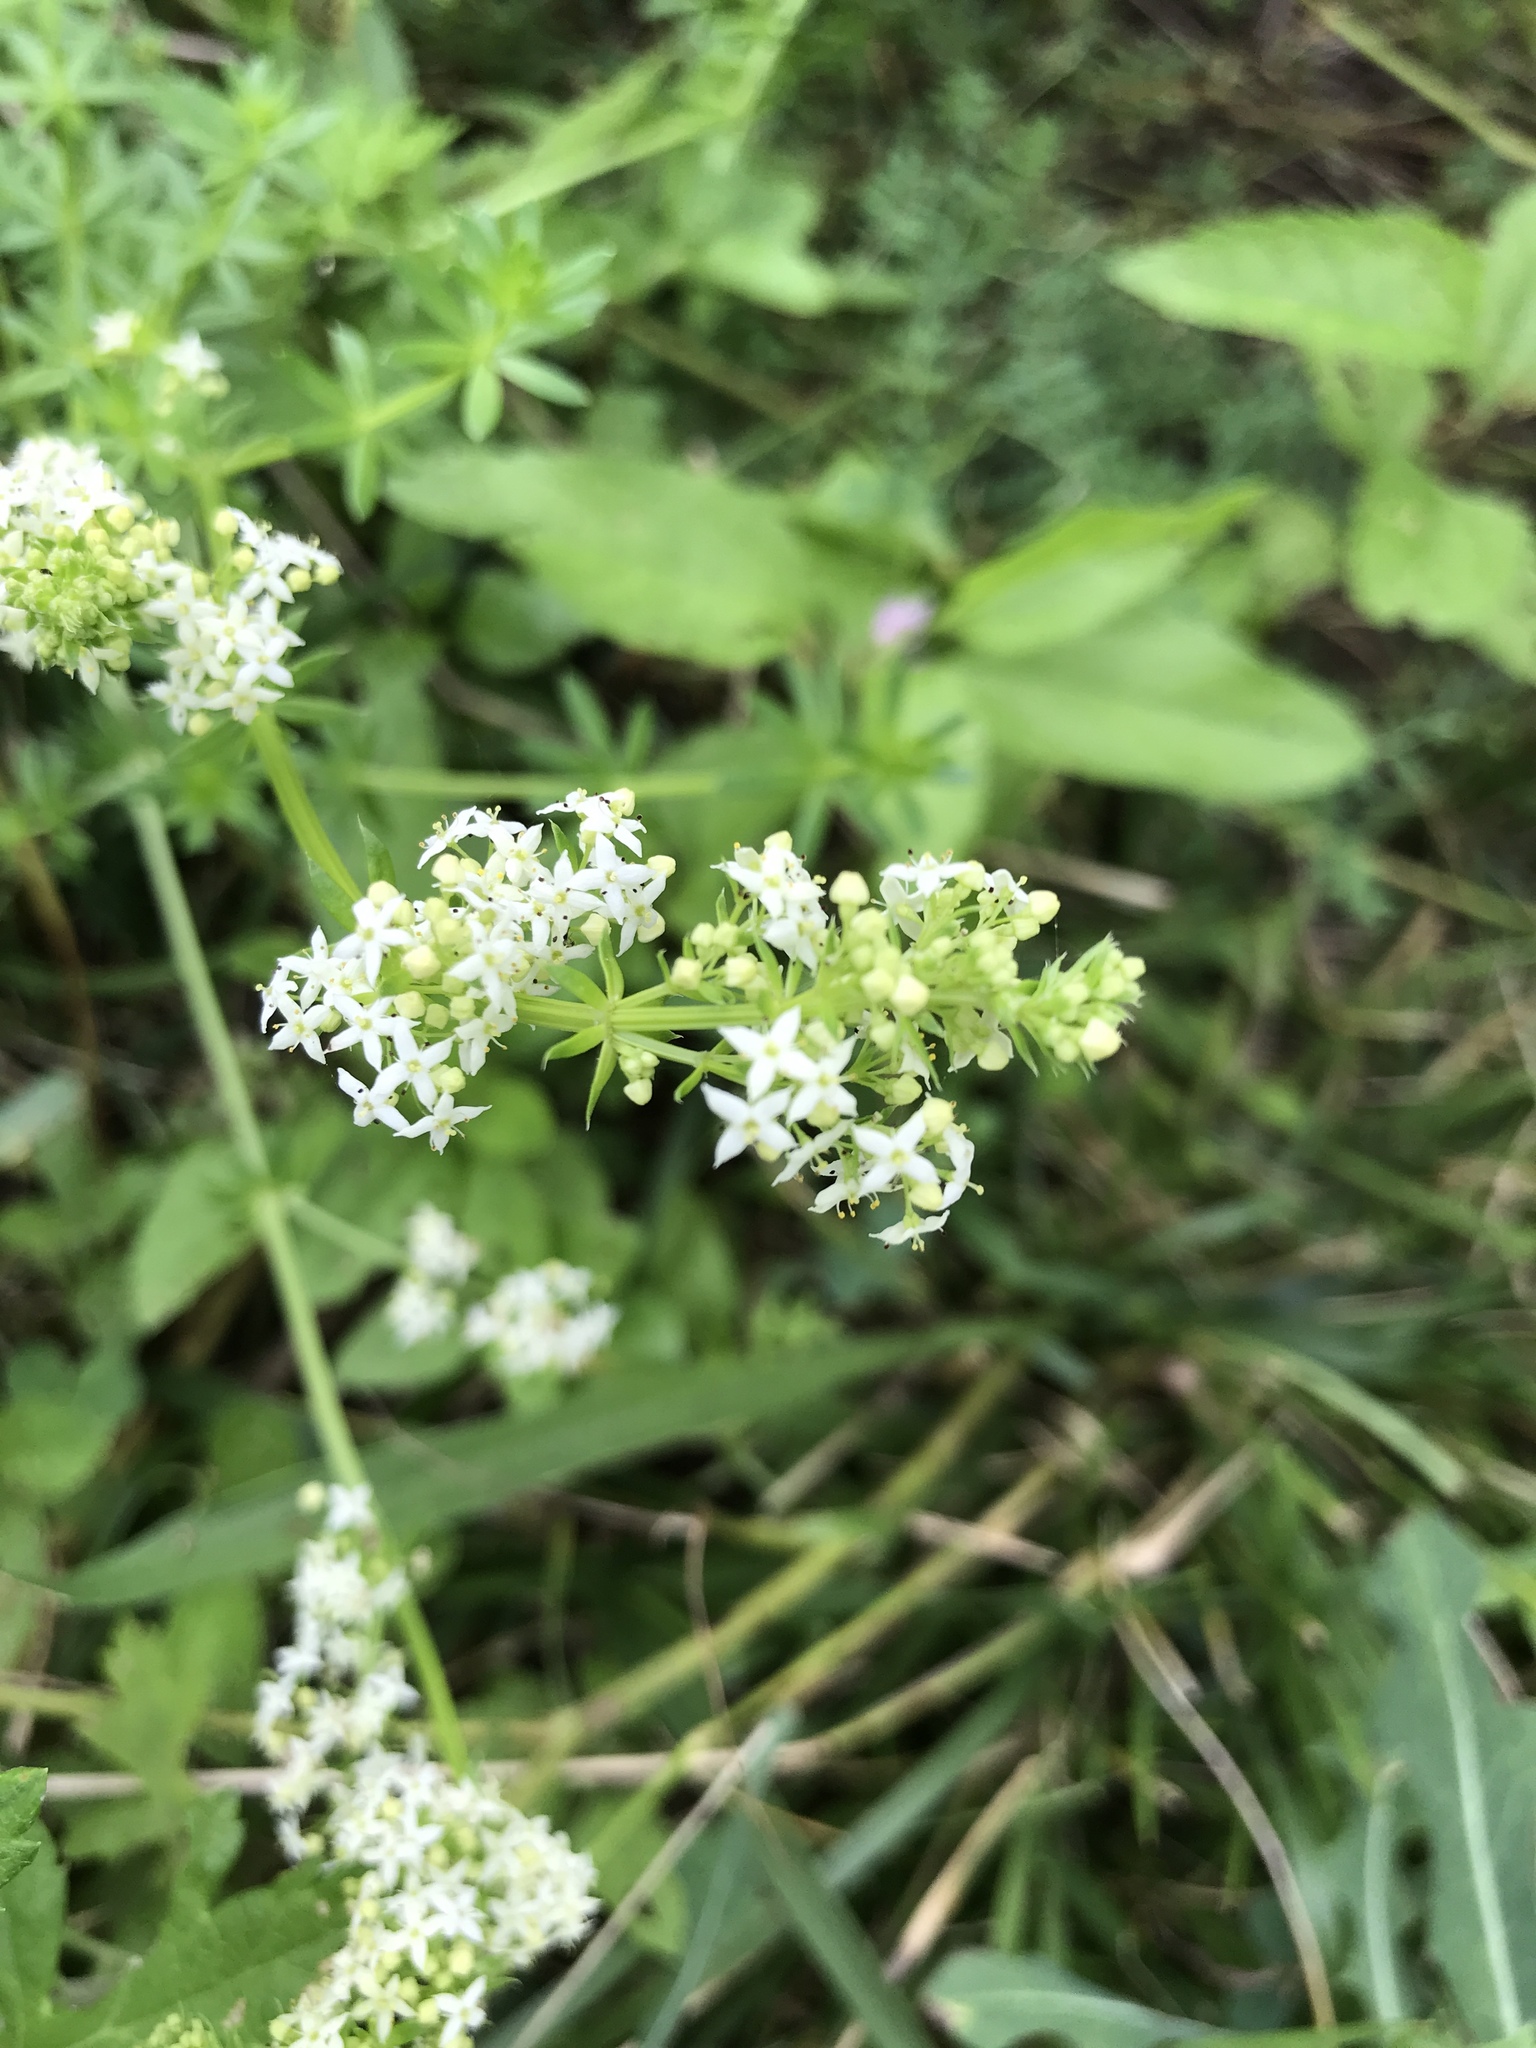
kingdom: Plantae
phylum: Tracheophyta
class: Magnoliopsida
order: Gentianales
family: Rubiaceae
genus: Galium
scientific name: Galium mollugo
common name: Hedge bedstraw
